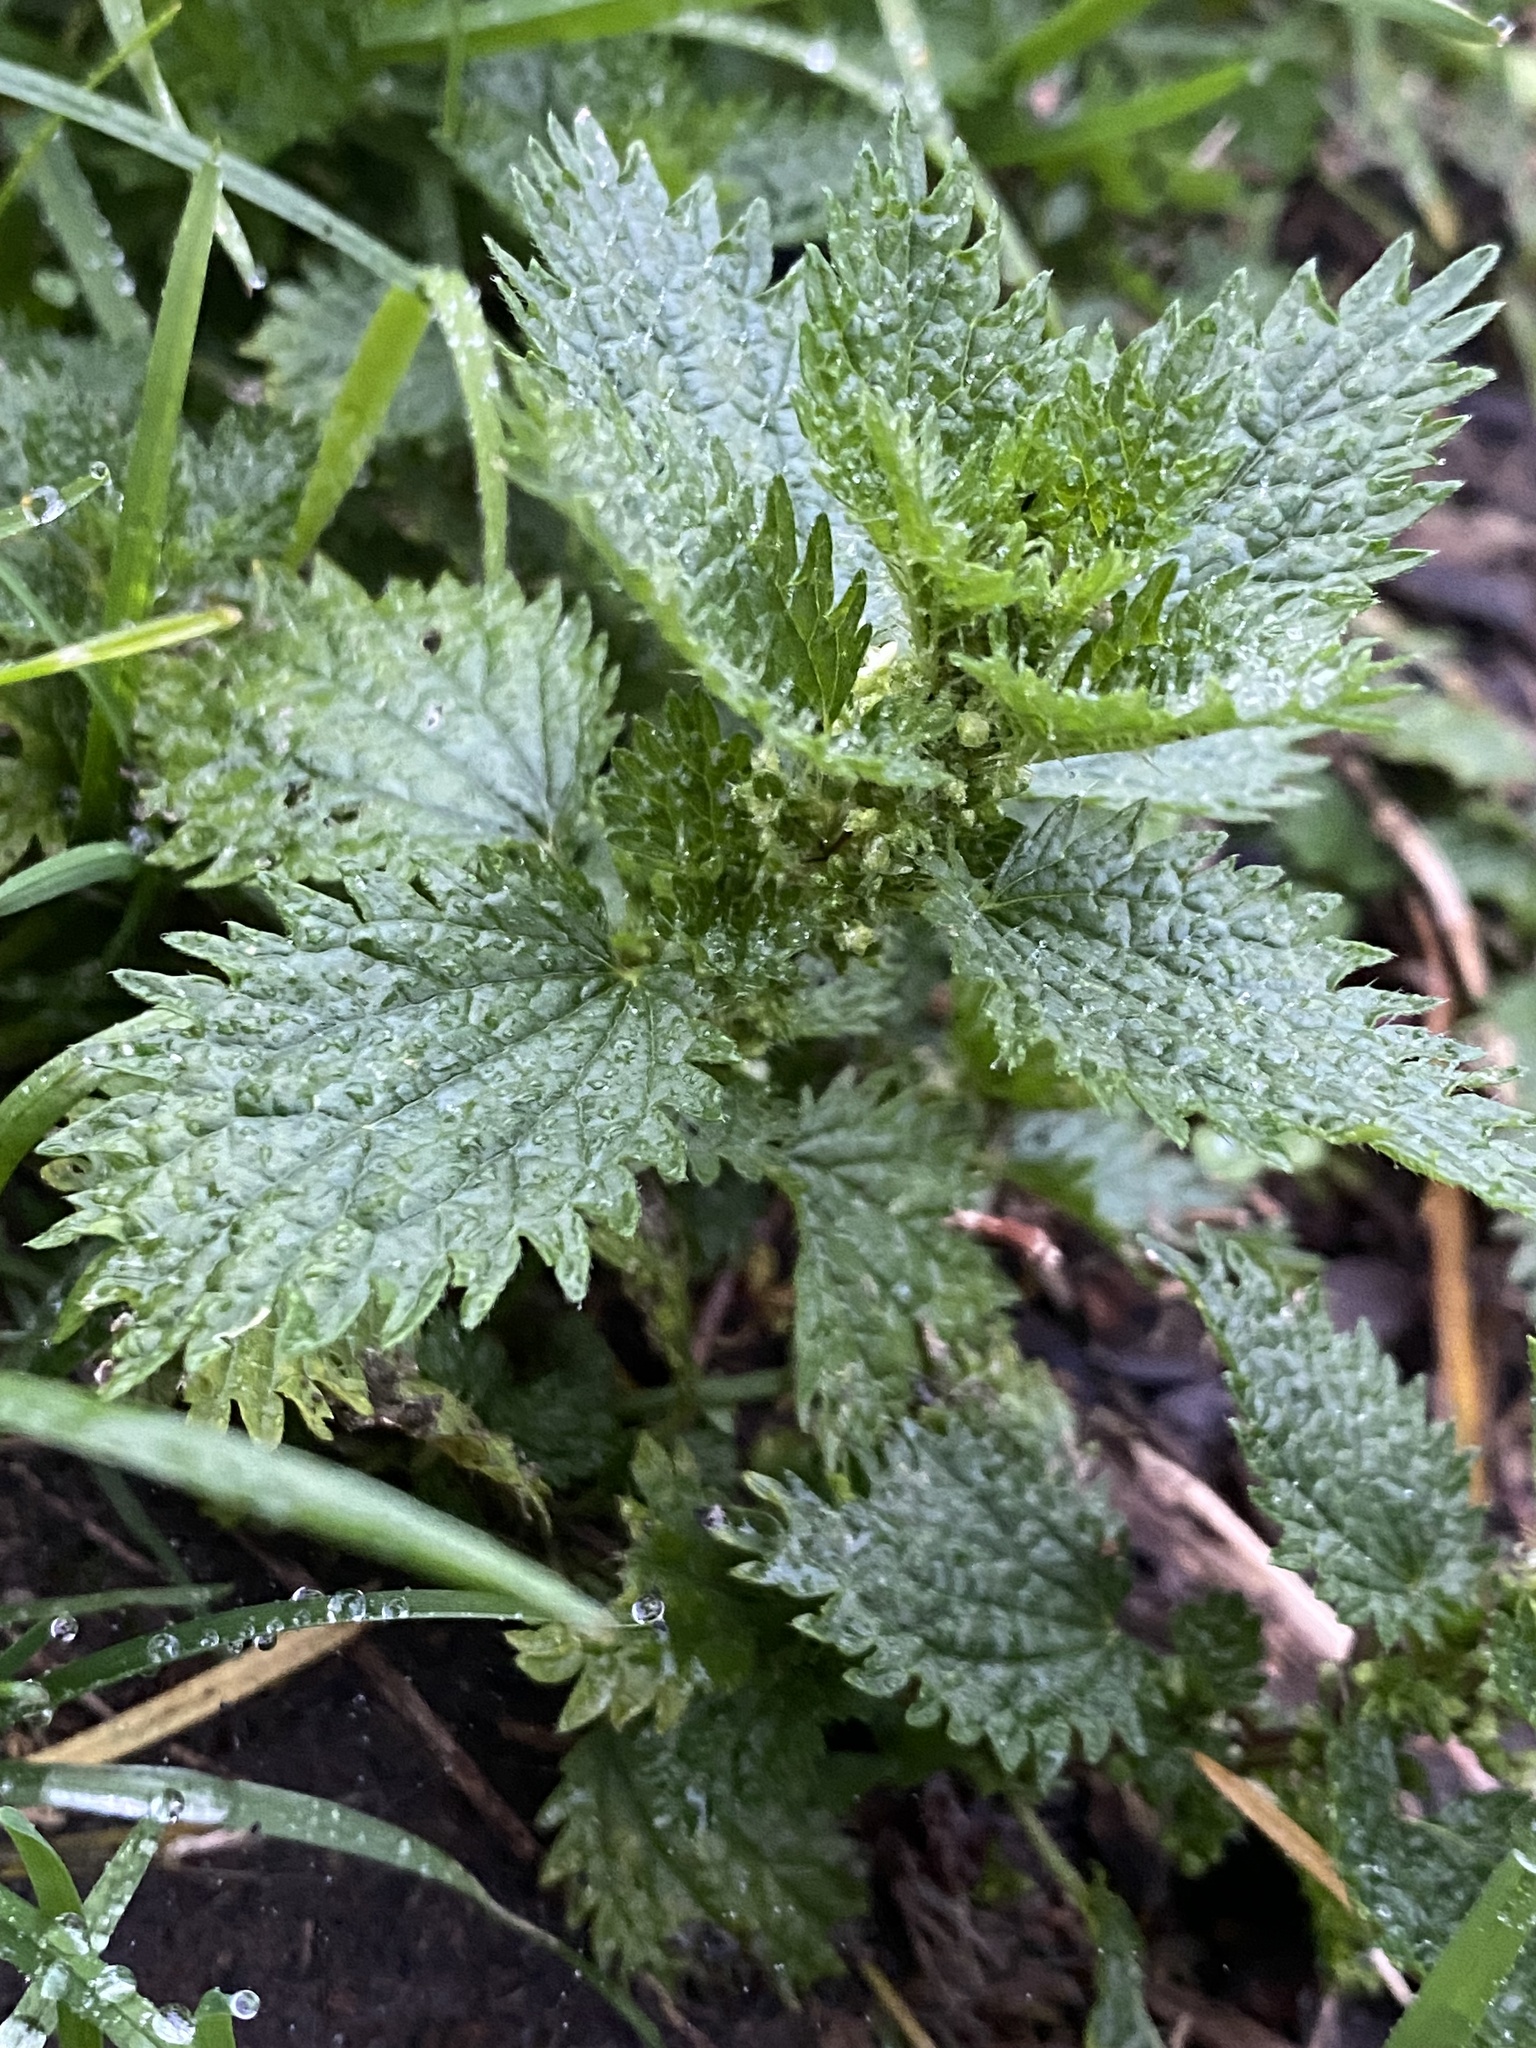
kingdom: Plantae
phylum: Tracheophyta
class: Magnoliopsida
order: Rosales
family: Urticaceae
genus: Urtica
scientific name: Urtica urens
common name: Dwarf nettle
